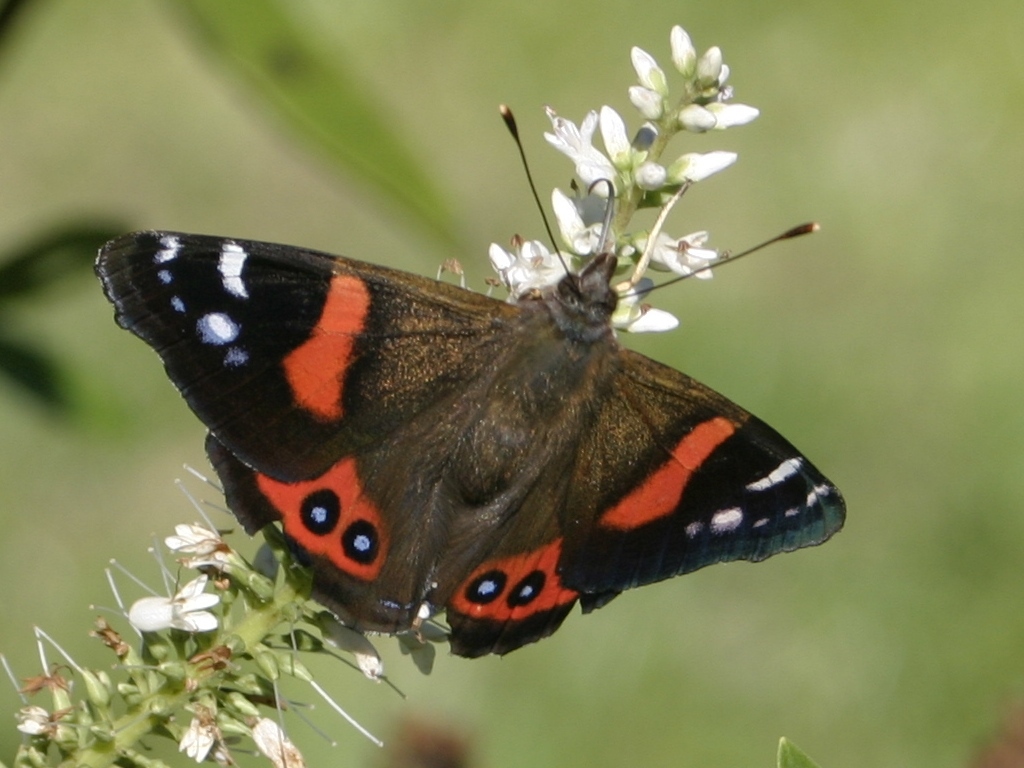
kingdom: Animalia
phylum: Arthropoda
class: Insecta
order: Lepidoptera
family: Nymphalidae
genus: Vanessa
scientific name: Vanessa gonerilla
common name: New zealand red admiral
